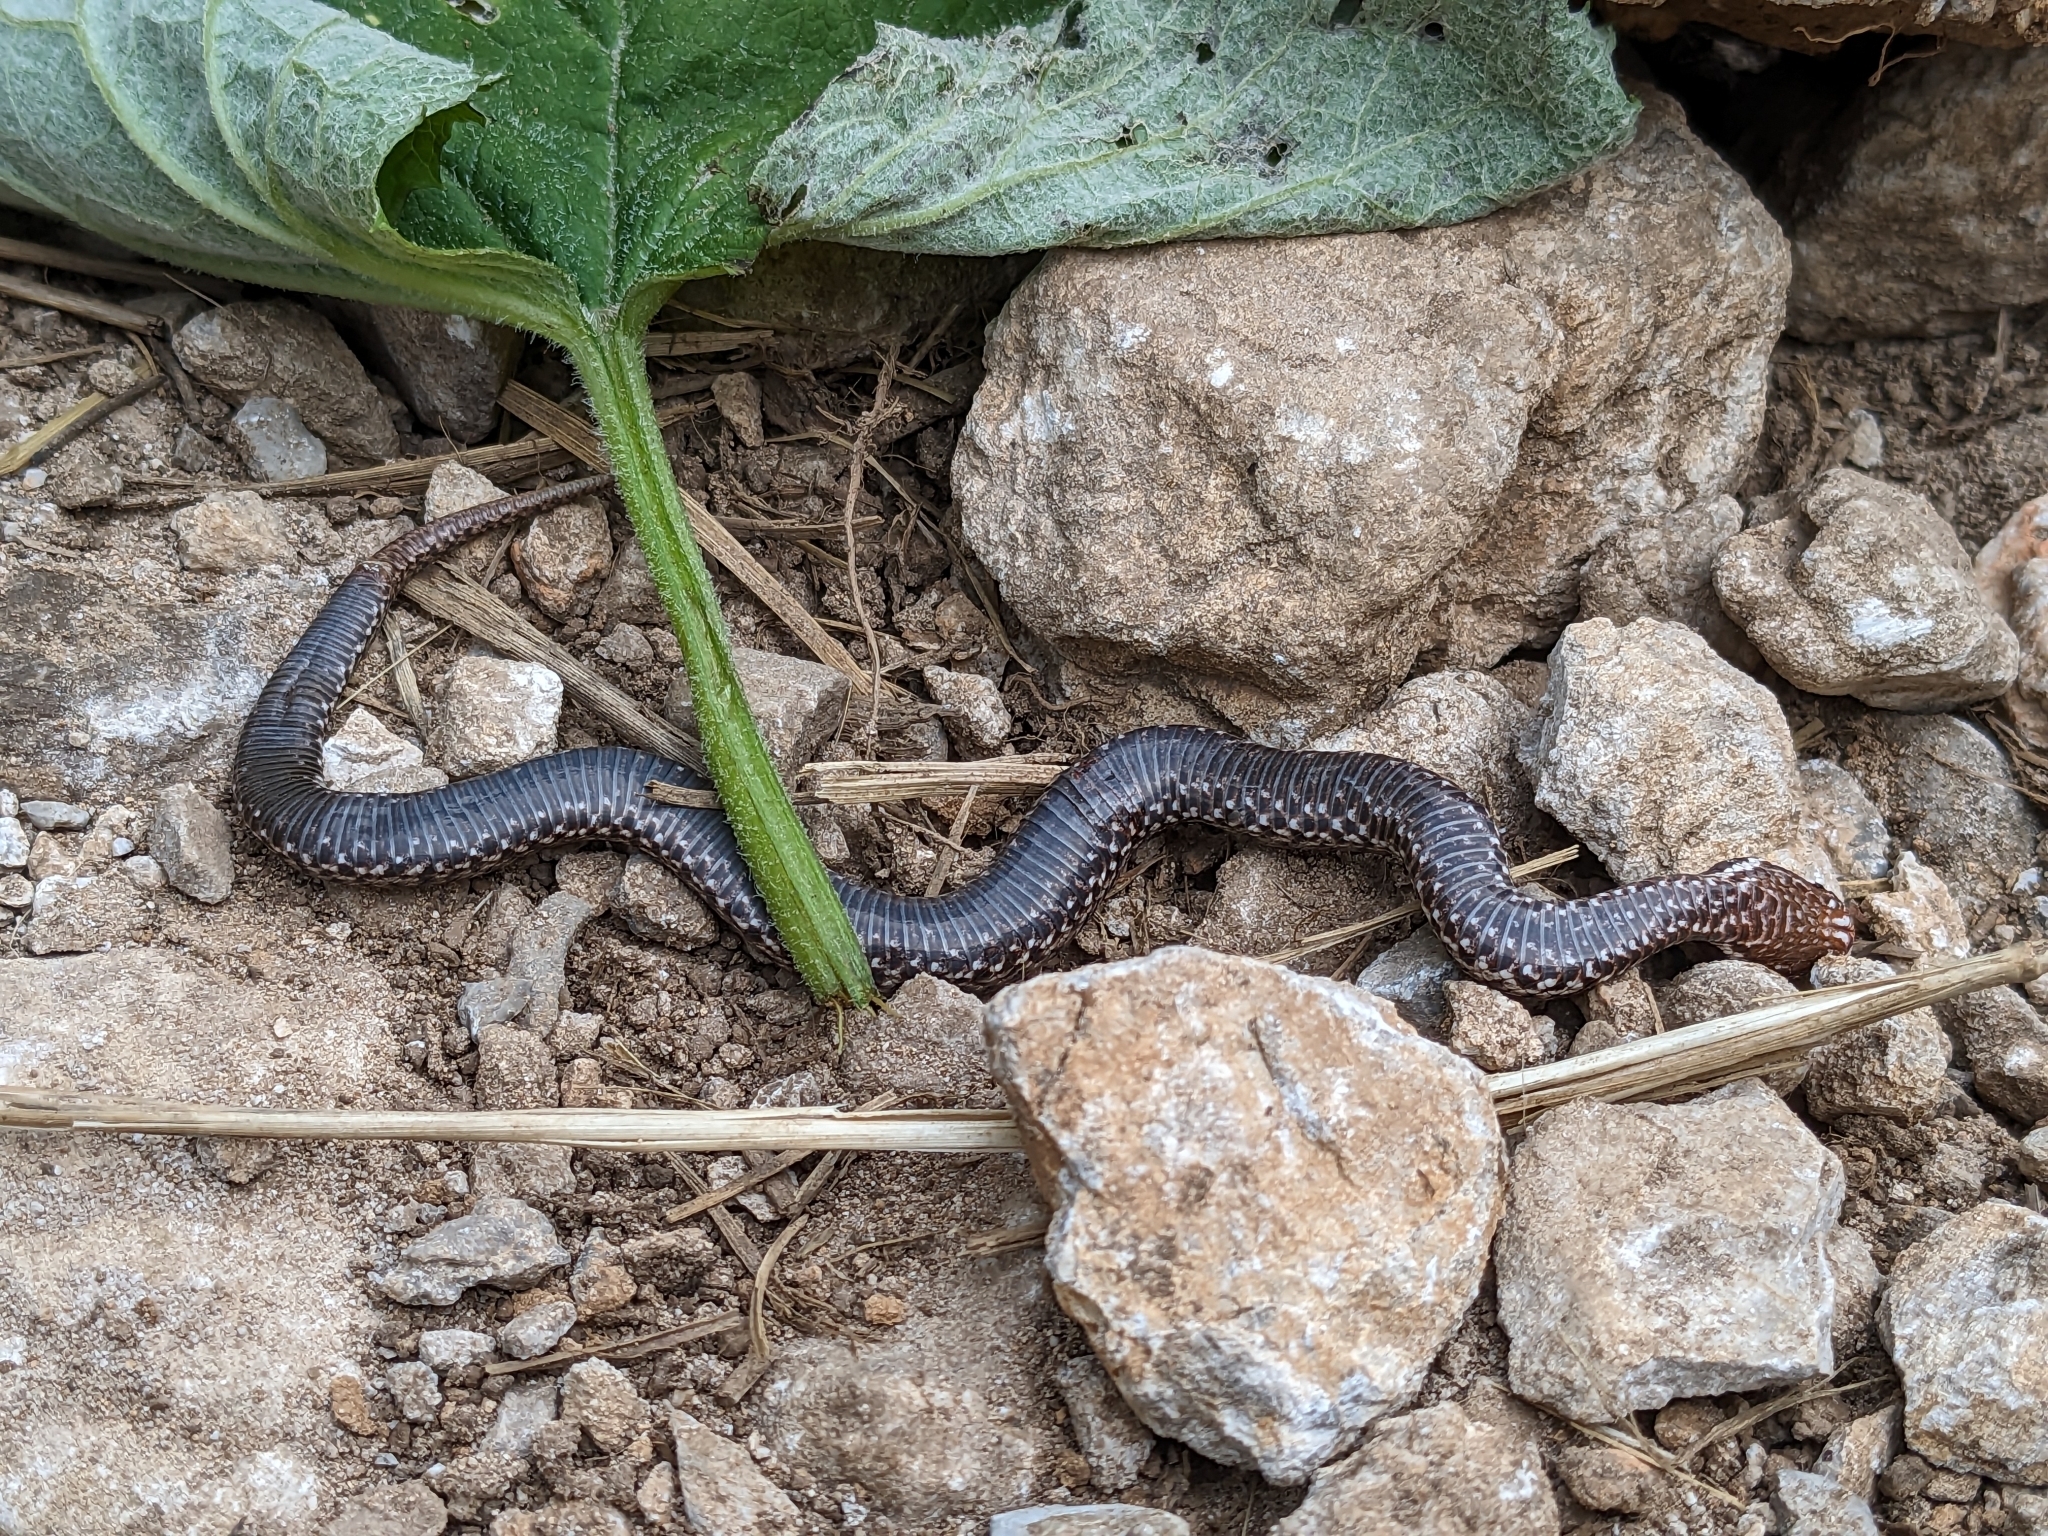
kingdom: Animalia
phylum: Chordata
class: Squamata
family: Viperidae
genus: Vipera
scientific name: Vipera berus
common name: Adder
